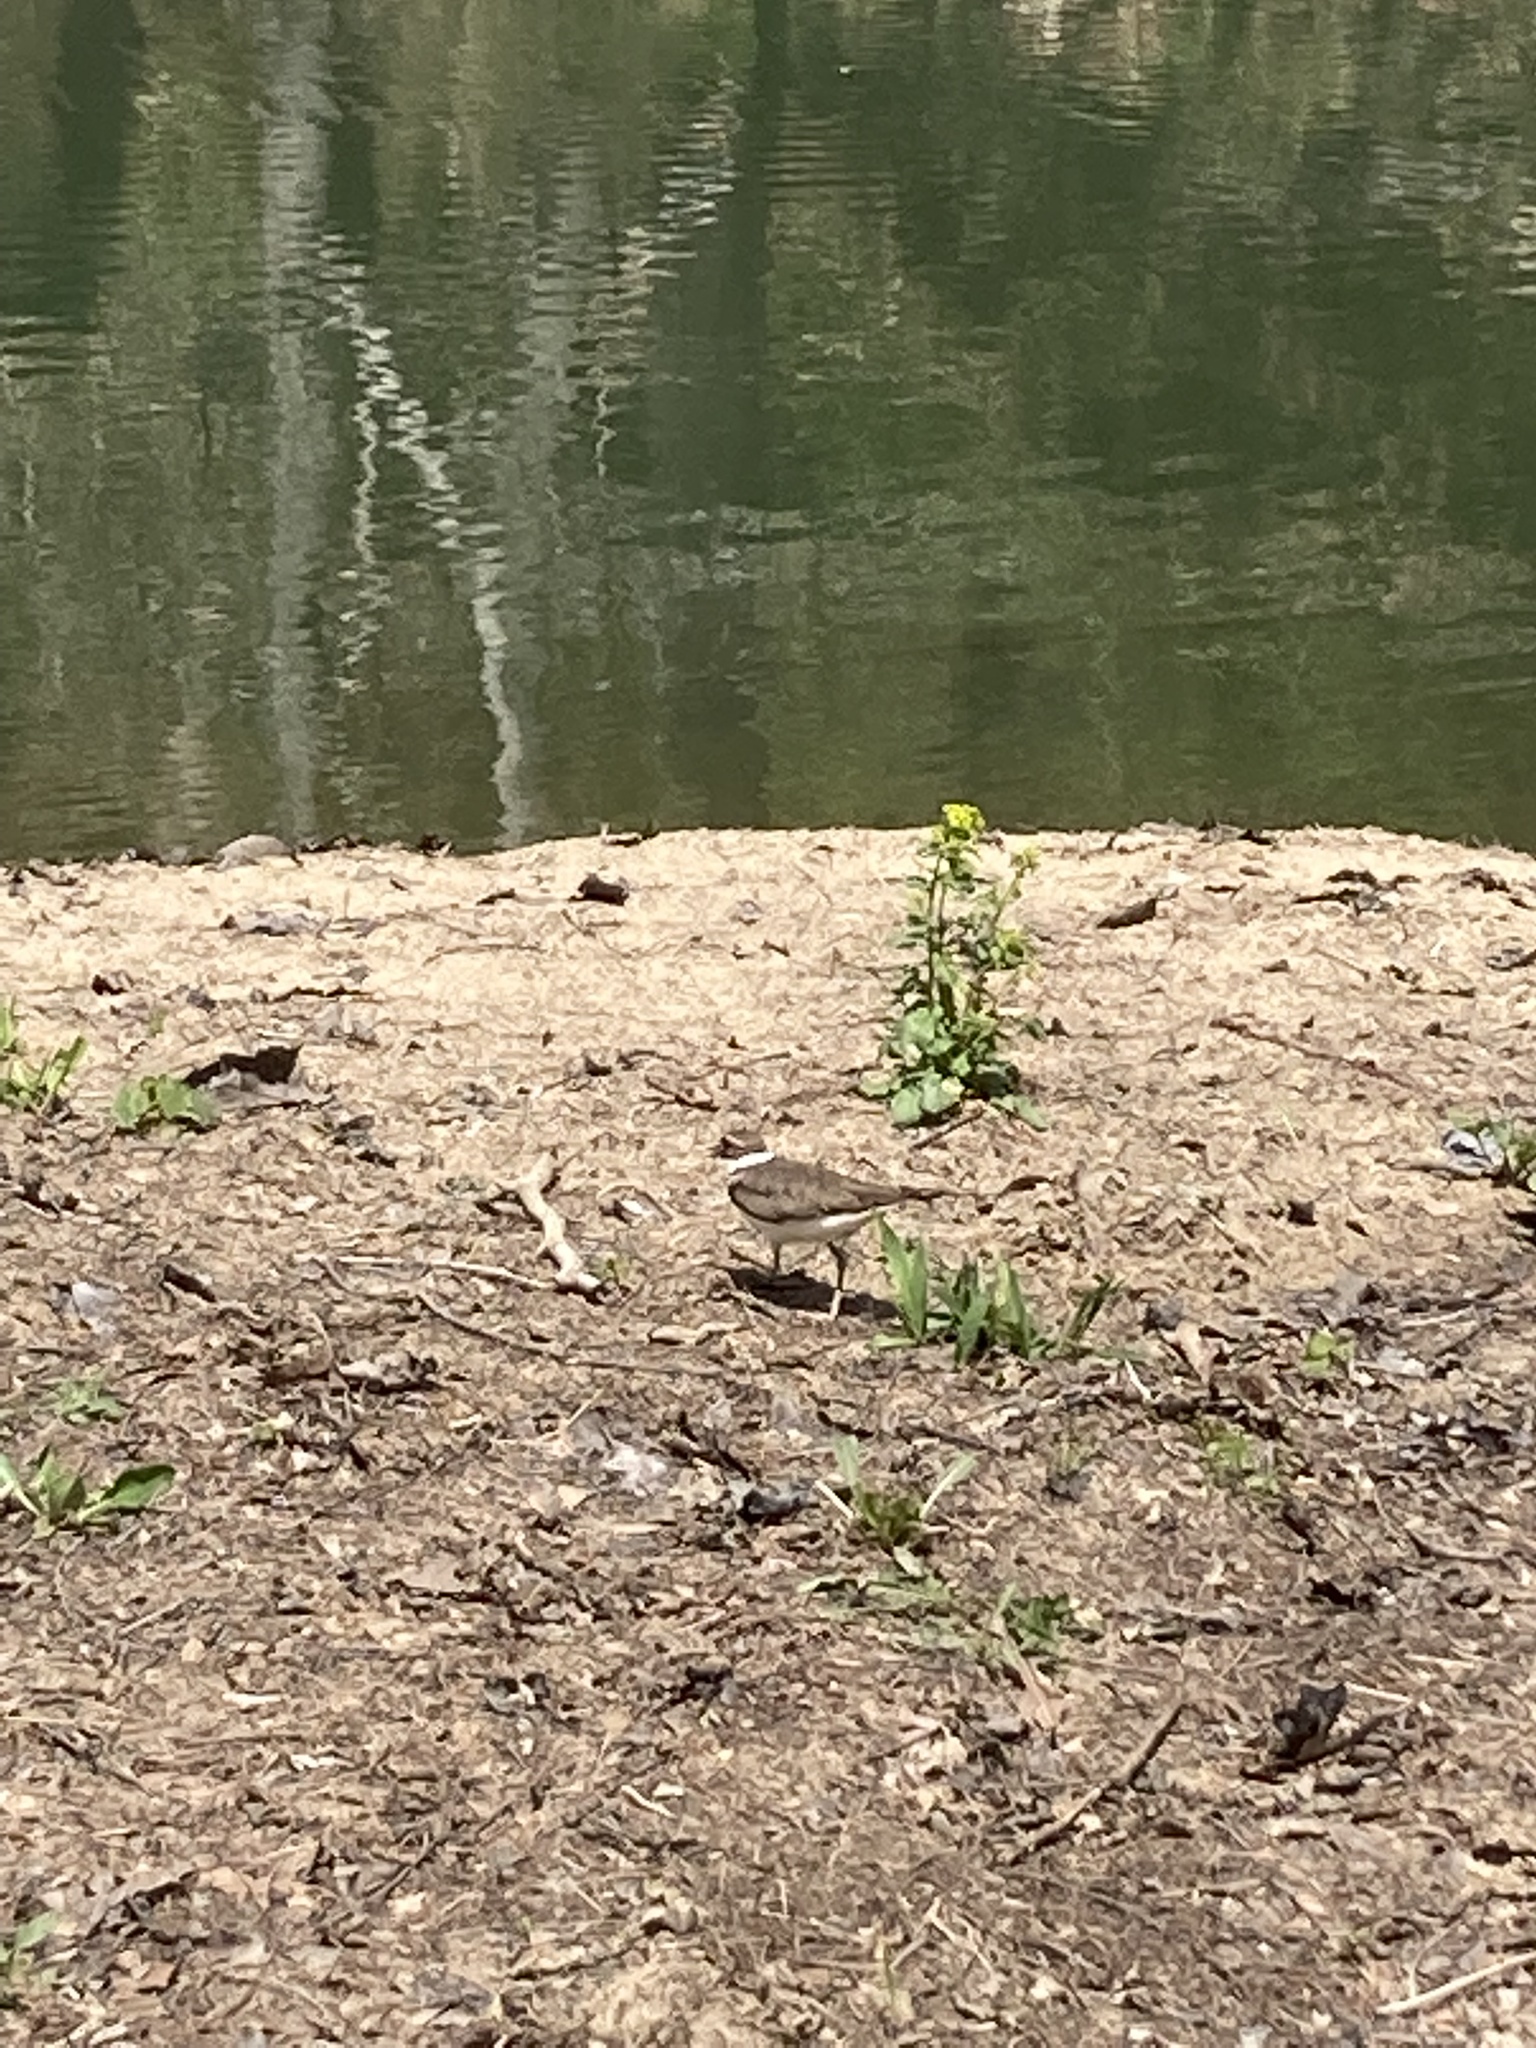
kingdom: Animalia
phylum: Chordata
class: Aves
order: Charadriiformes
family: Charadriidae
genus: Charadrius
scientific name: Charadrius vociferus
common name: Killdeer
